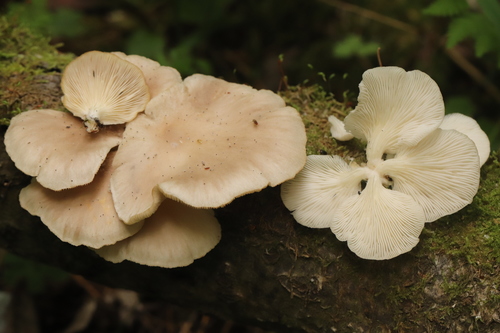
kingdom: Fungi
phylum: Basidiomycota
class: Agaricomycetes
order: Agaricales
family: Pleurotaceae
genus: Pleurotus
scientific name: Pleurotus pulmonarius
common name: Pale oyster
